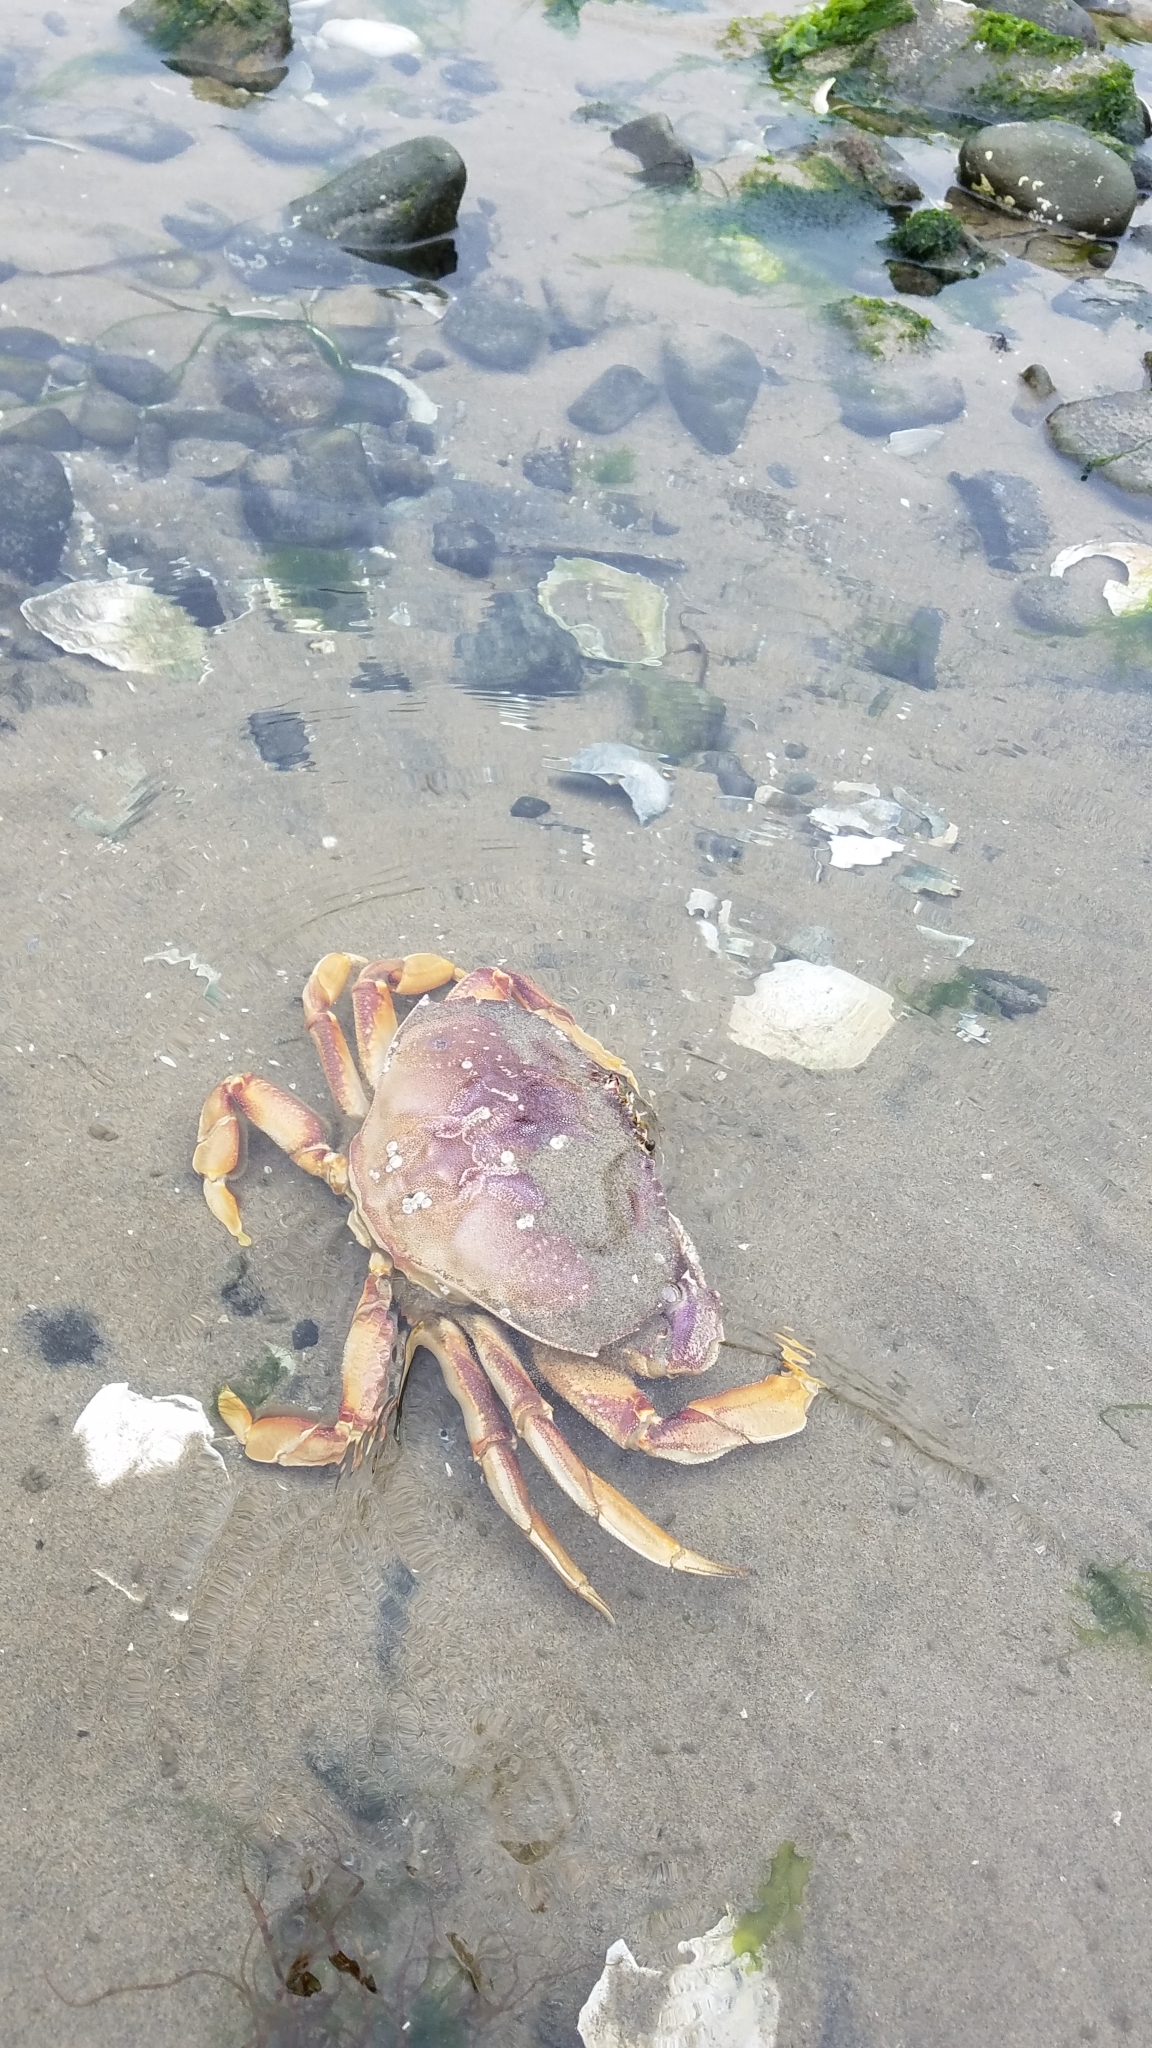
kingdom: Animalia
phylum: Arthropoda
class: Malacostraca
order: Decapoda
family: Cancridae
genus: Metacarcinus
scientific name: Metacarcinus magister
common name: Californian crab
